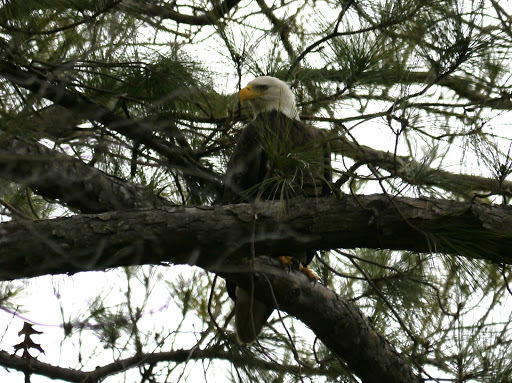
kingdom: Animalia
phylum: Chordata
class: Aves
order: Accipitriformes
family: Accipitridae
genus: Haliaeetus
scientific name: Haliaeetus leucocephalus
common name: Bald eagle
